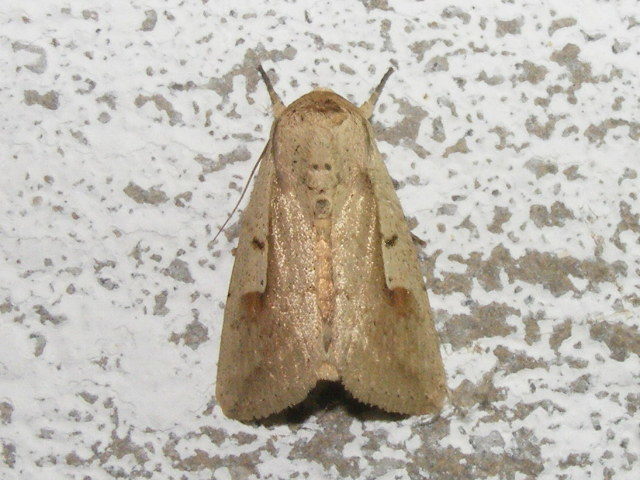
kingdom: Animalia
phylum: Arthropoda
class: Insecta
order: Lepidoptera
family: Noctuidae
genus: Leucania
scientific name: Leucania yu
